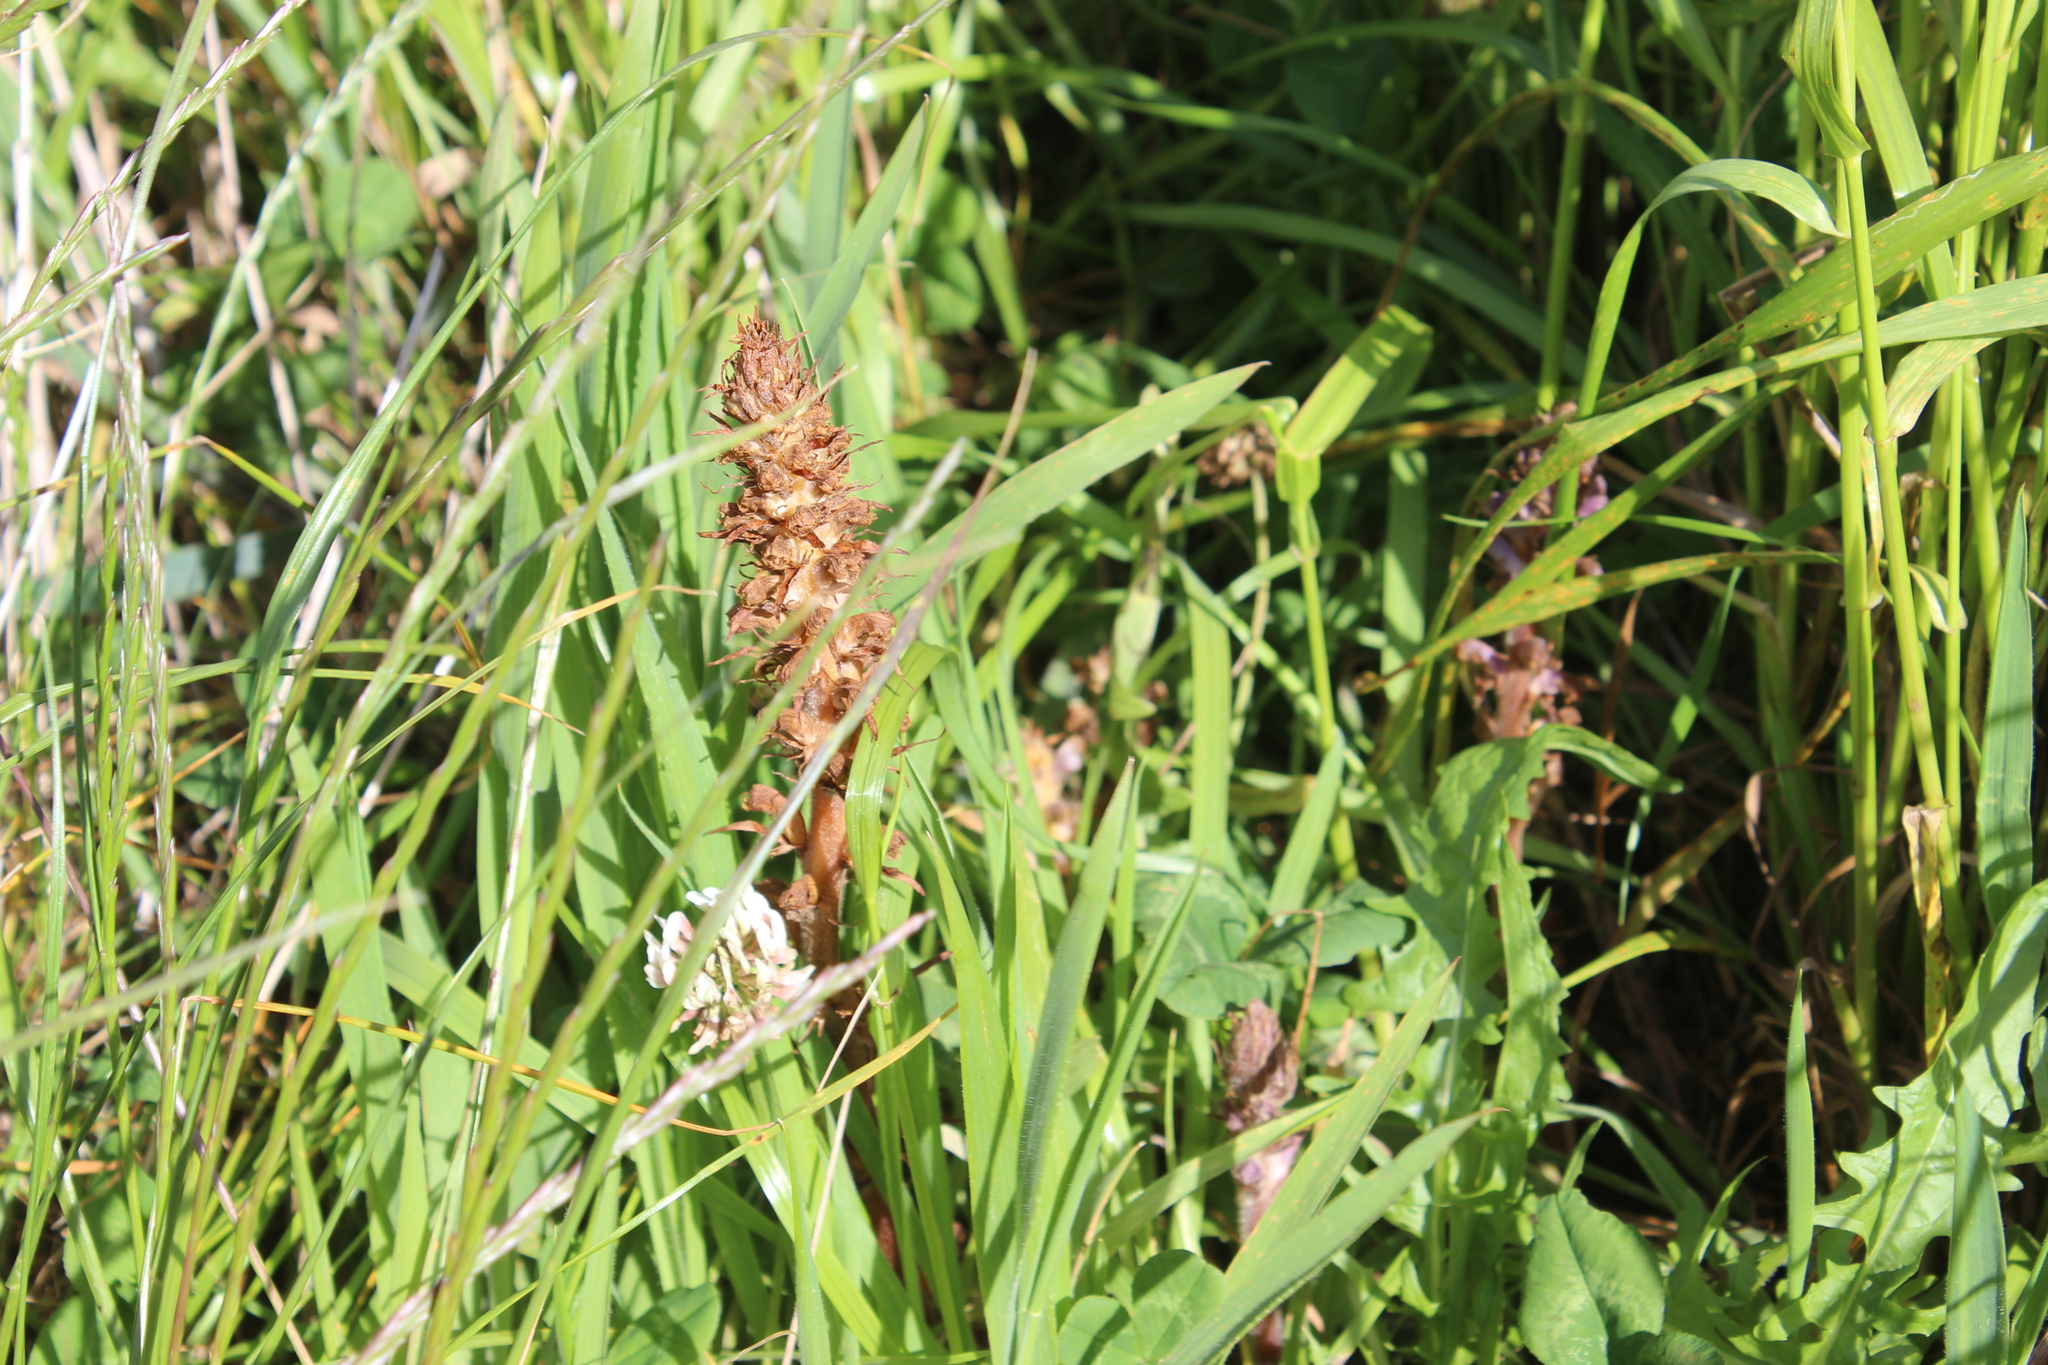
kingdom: Plantae
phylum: Tracheophyta
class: Magnoliopsida
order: Lamiales
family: Orobanchaceae
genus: Orobanche
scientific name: Orobanche minor
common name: Common broomrape
